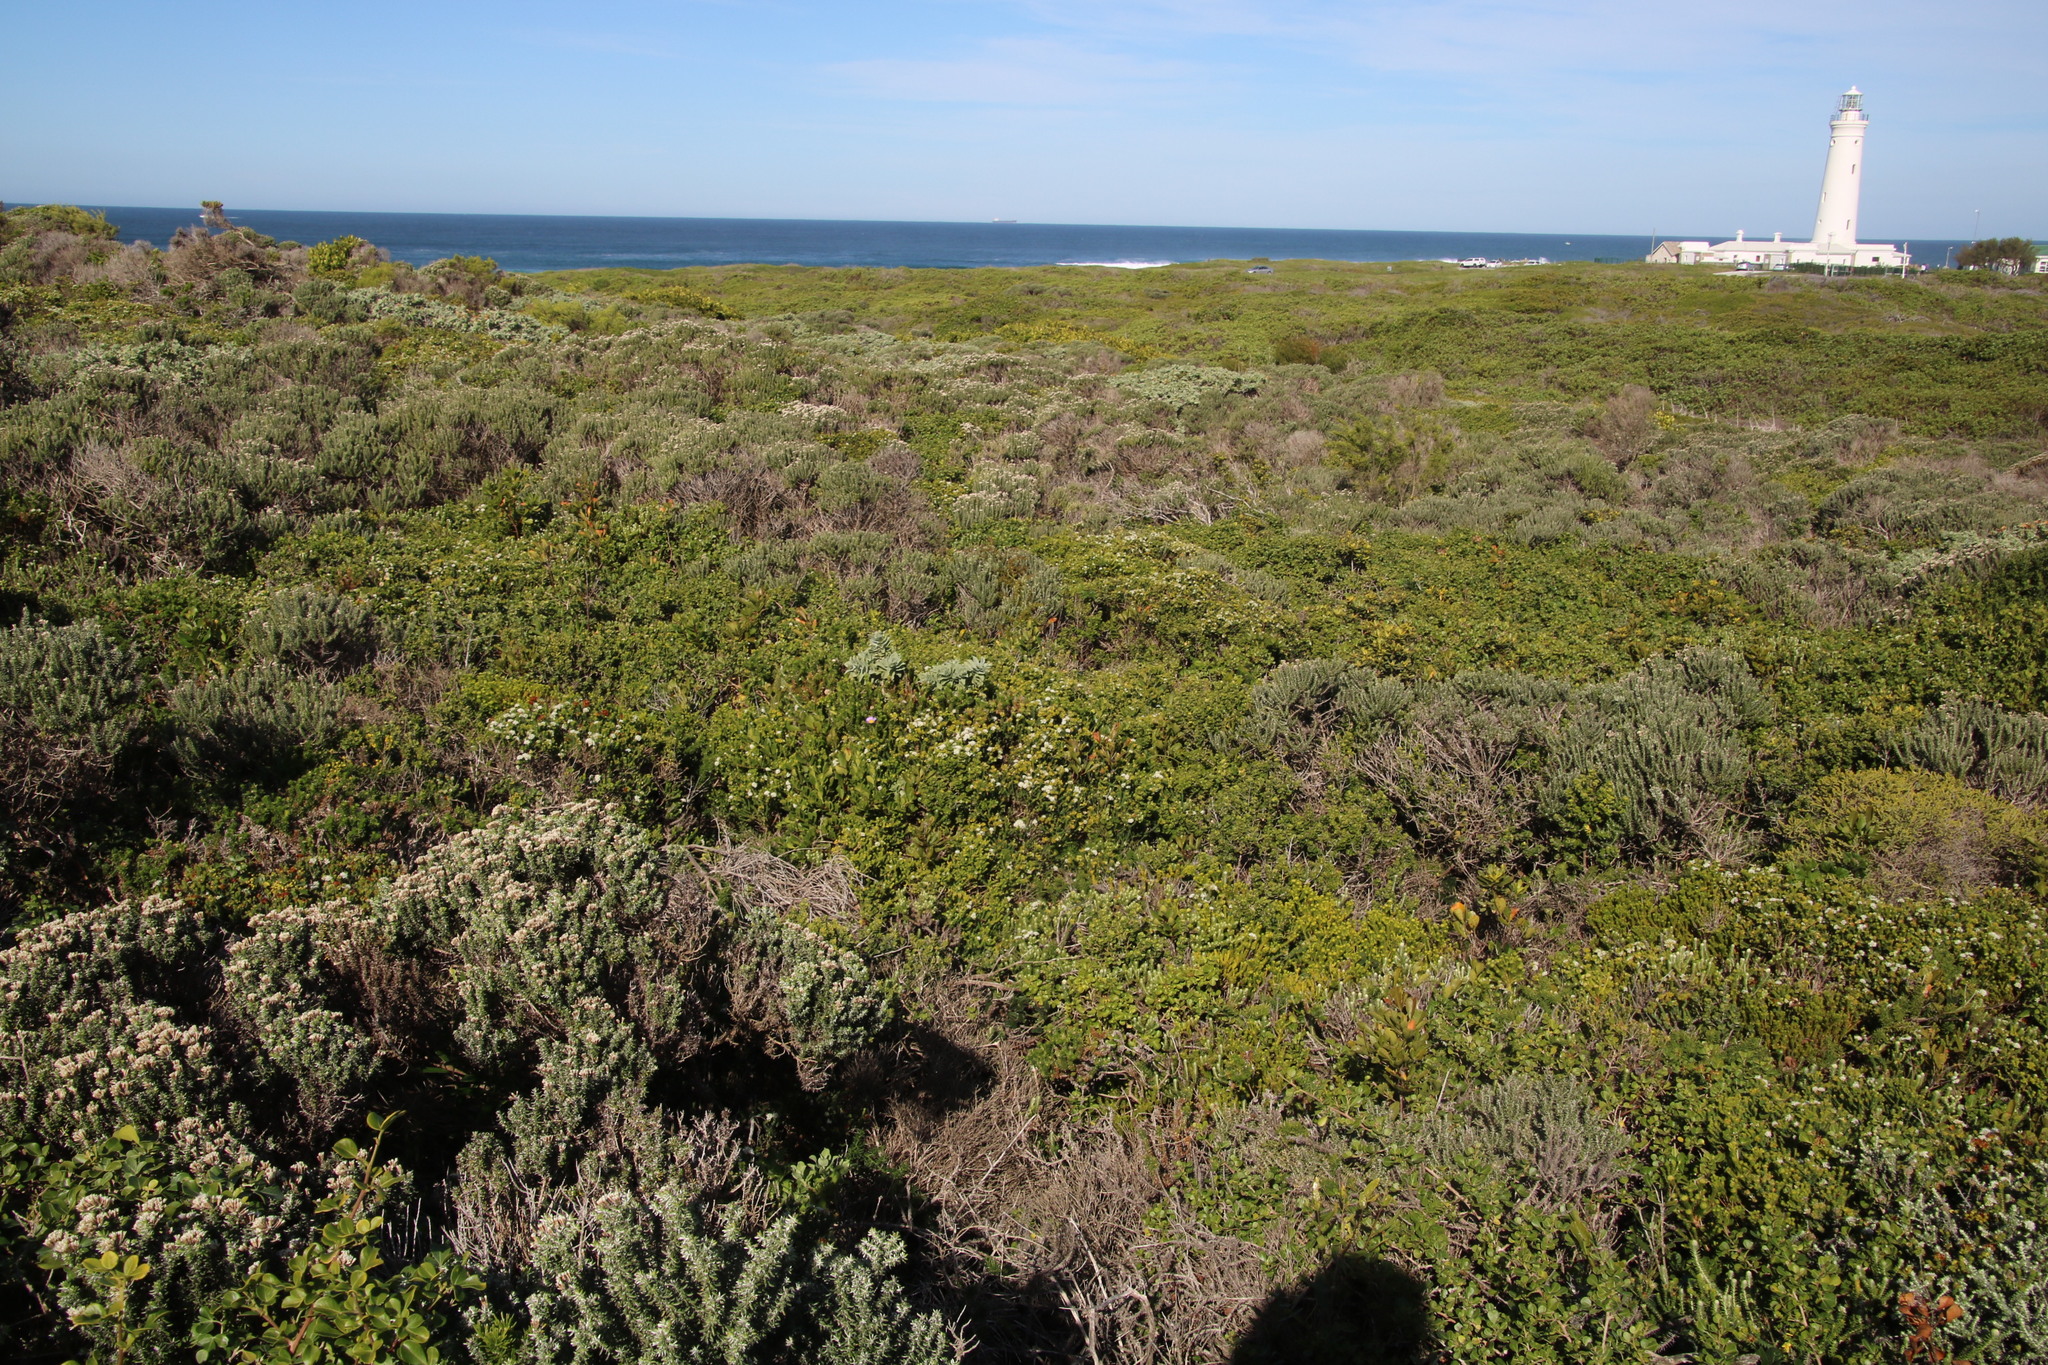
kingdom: Plantae
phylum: Tracheophyta
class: Magnoliopsida
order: Sapindales
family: Rutaceae
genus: Agathosma
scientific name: Agathosma apiculata
